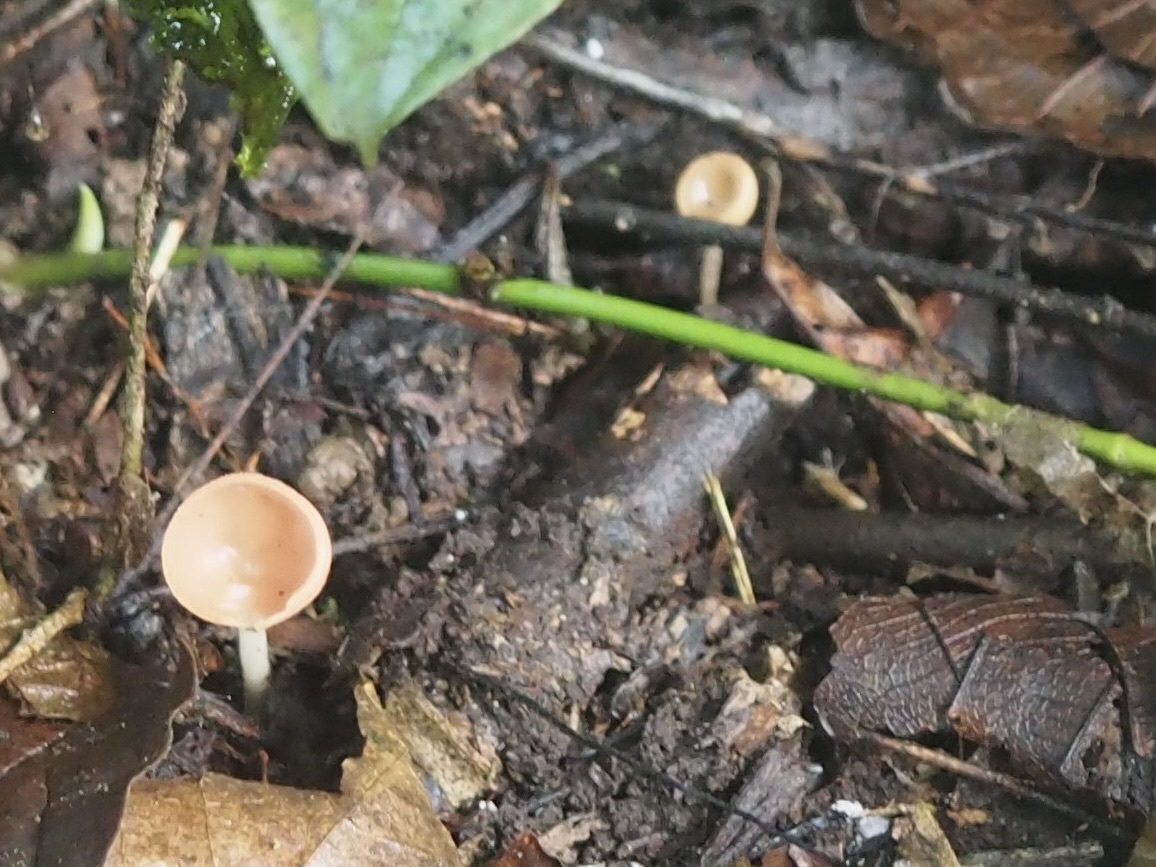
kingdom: Fungi
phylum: Ascomycota
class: Pezizomycetes
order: Pezizales
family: Sarcoscyphaceae
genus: Cookeina
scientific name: Cookeina speciosa
